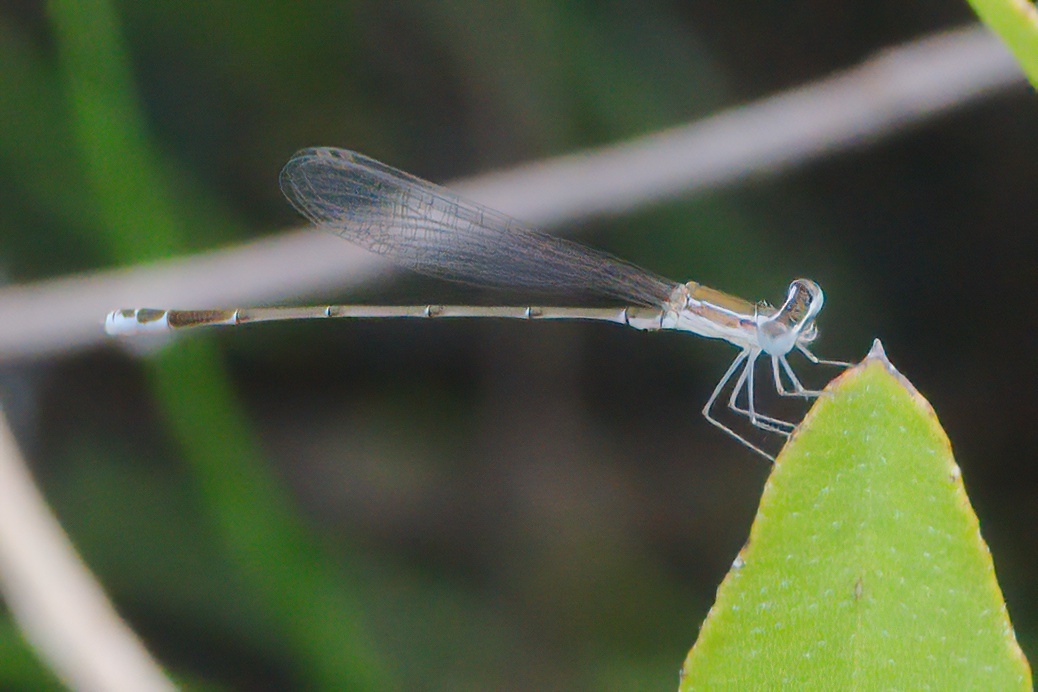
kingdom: Animalia
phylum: Arthropoda
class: Insecta
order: Odonata
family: Coenagrionidae
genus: Nehalennia
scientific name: Nehalennia pallidula
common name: Everglades sprite
